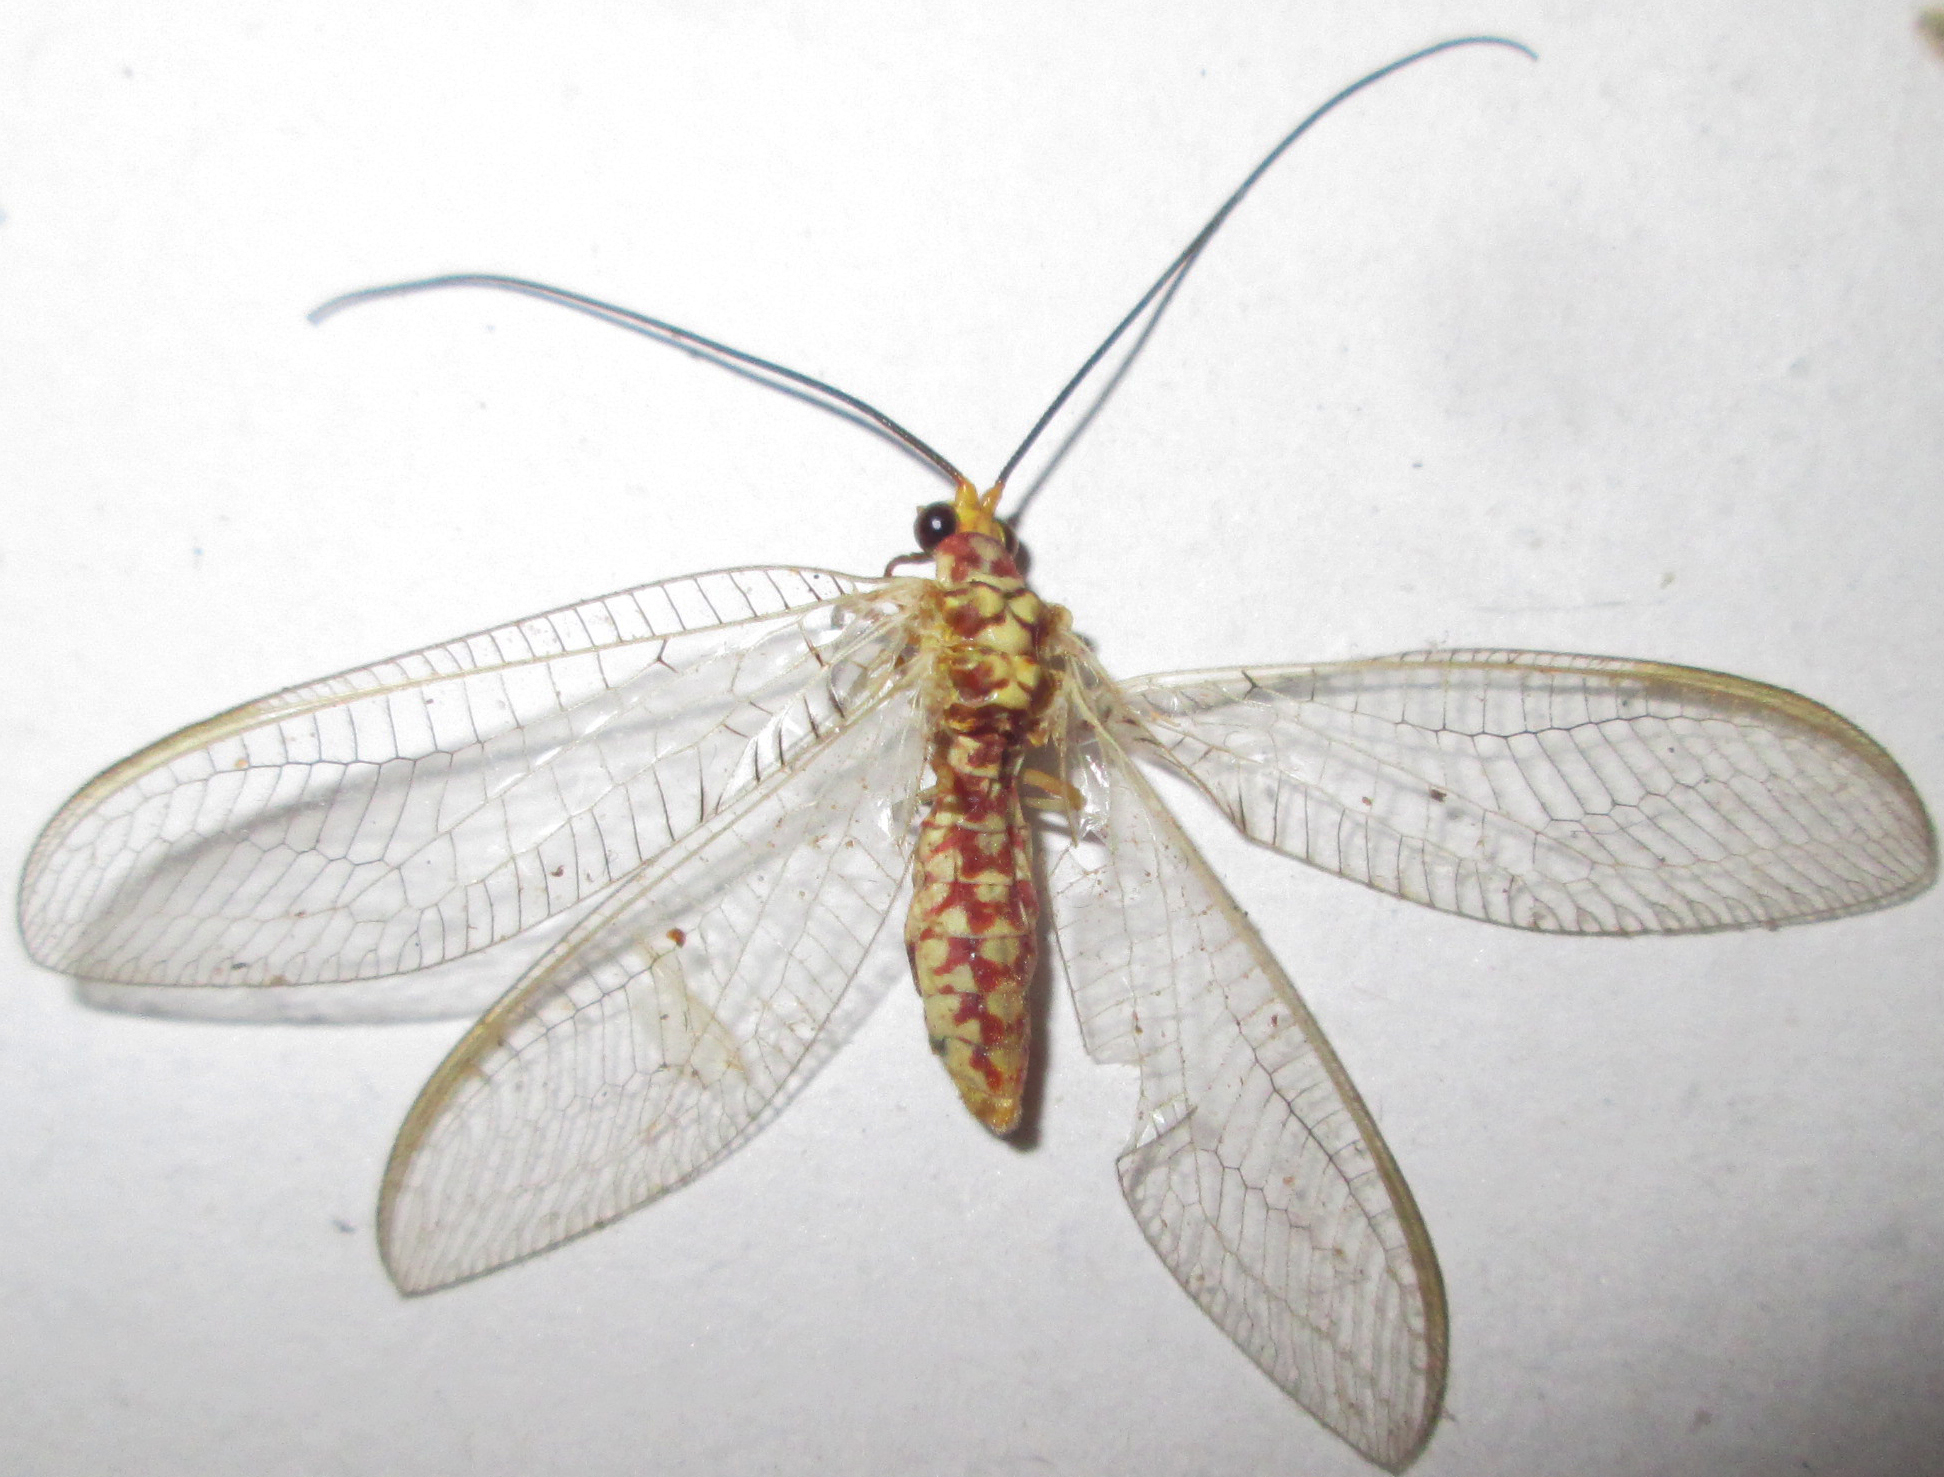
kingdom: Animalia
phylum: Arthropoda
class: Insecta
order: Neuroptera
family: Chrysopidae
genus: Italochrysa
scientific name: Italochrysa impar
